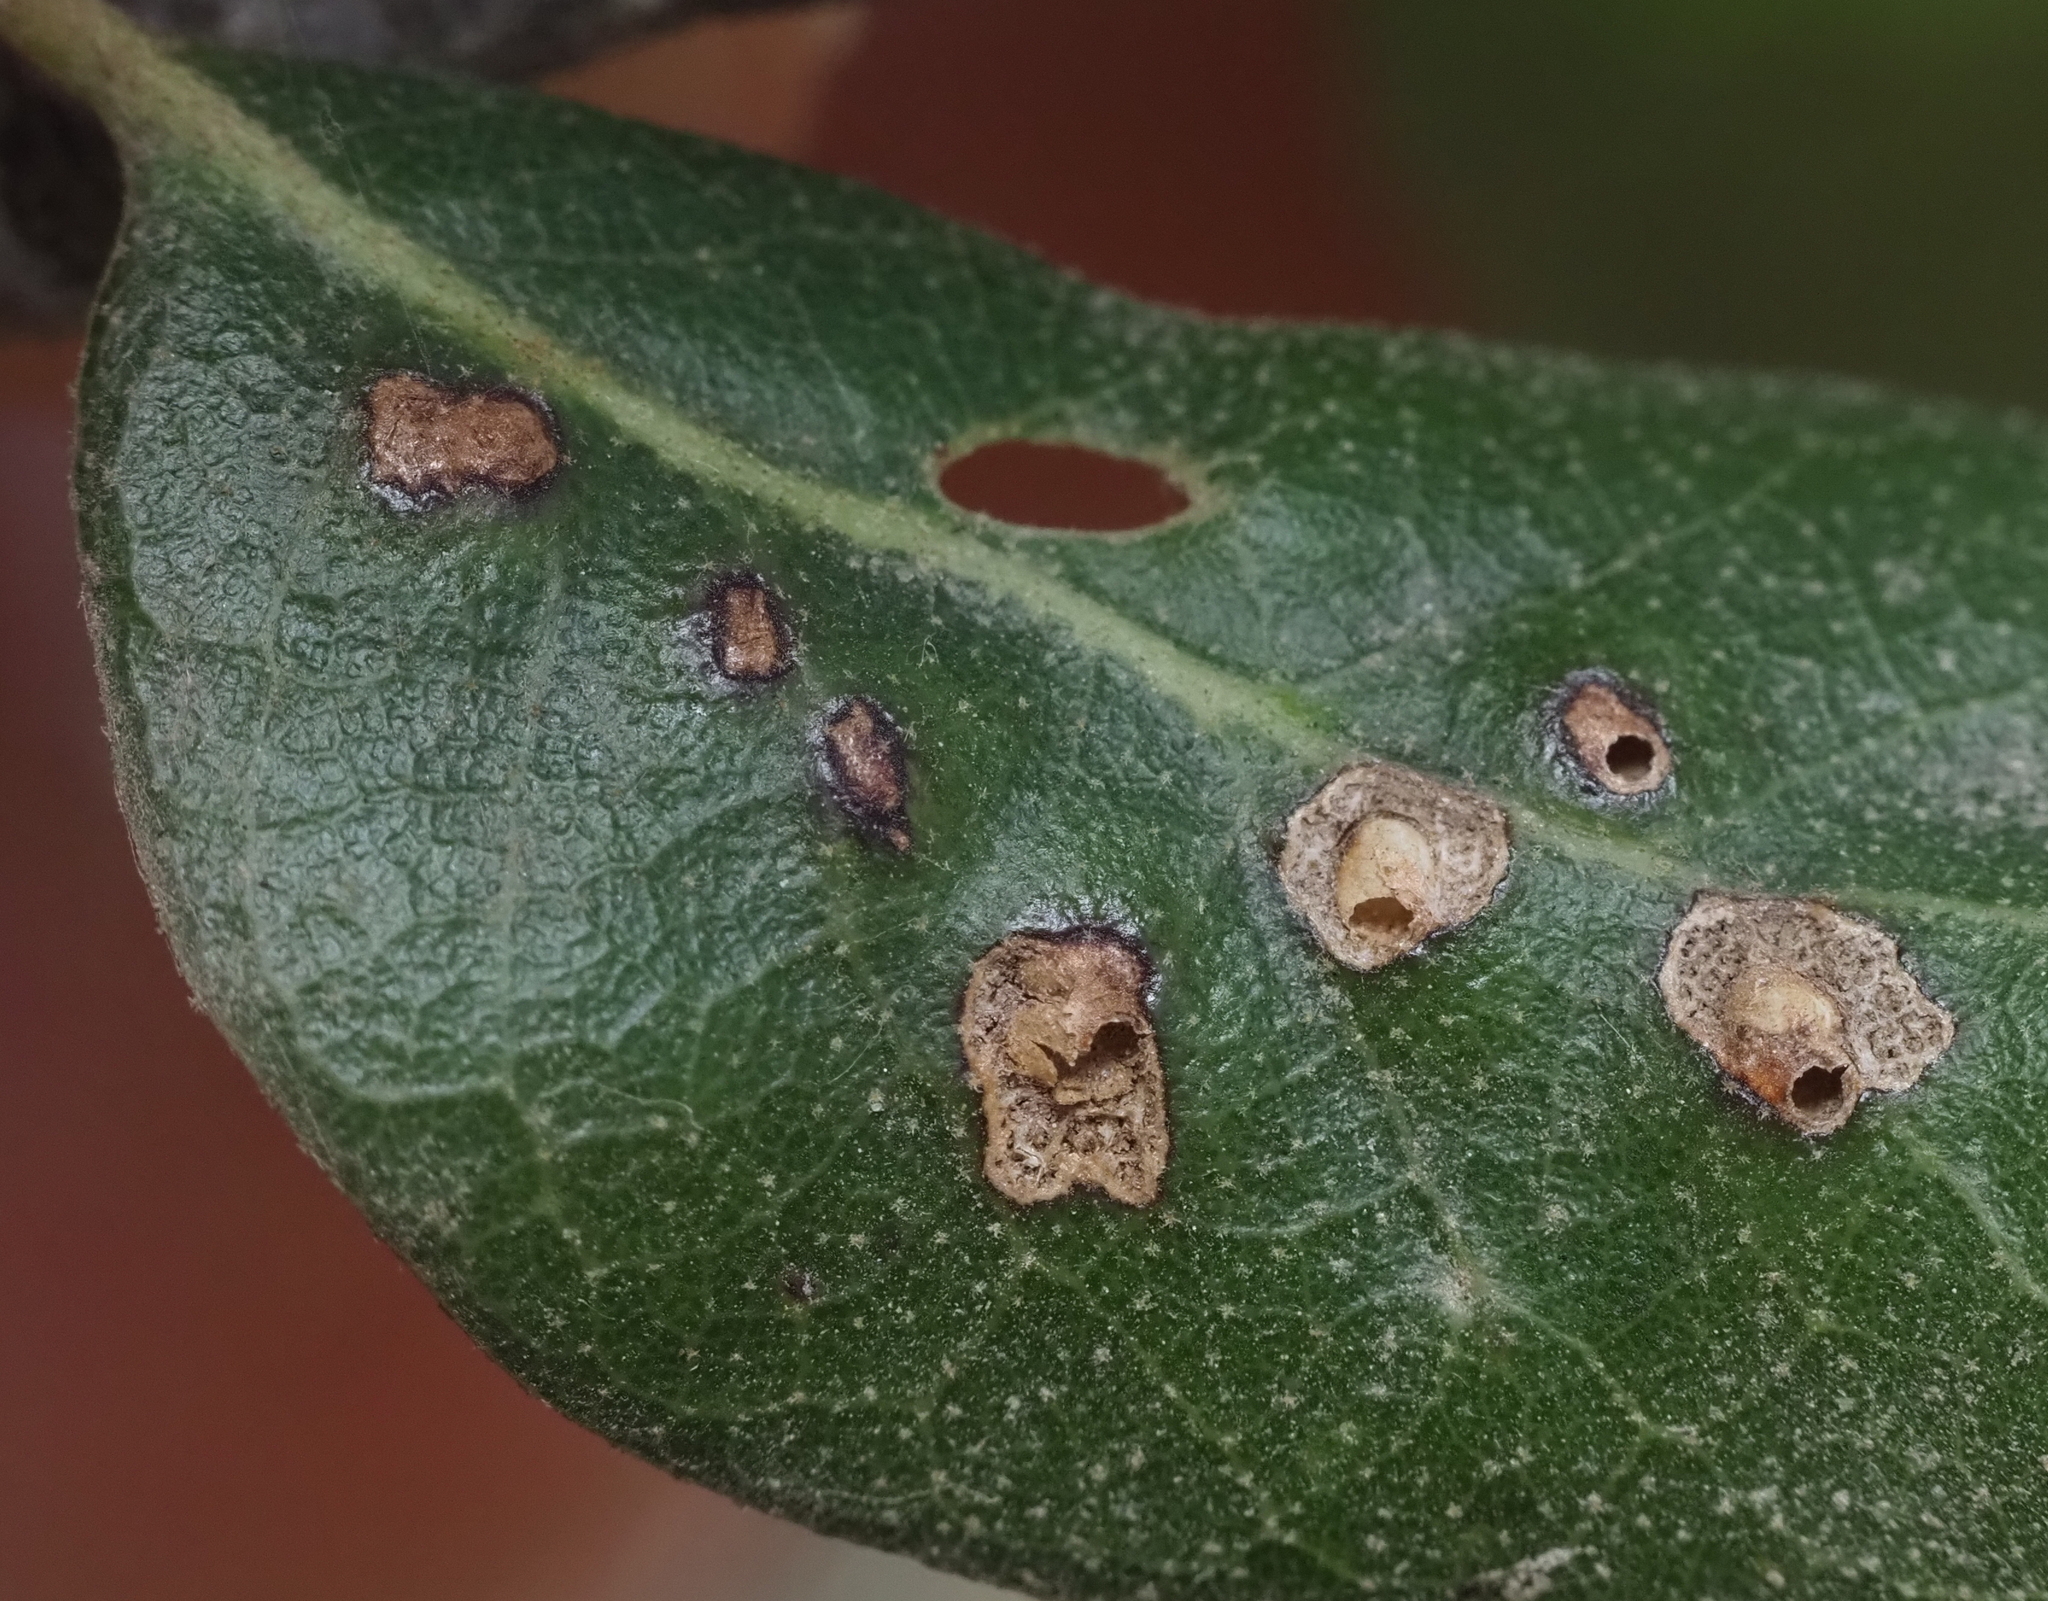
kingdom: Animalia
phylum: Arthropoda
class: Insecta
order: Hymenoptera
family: Cynipidae
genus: Neuroterus
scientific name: Neuroterus bussae
